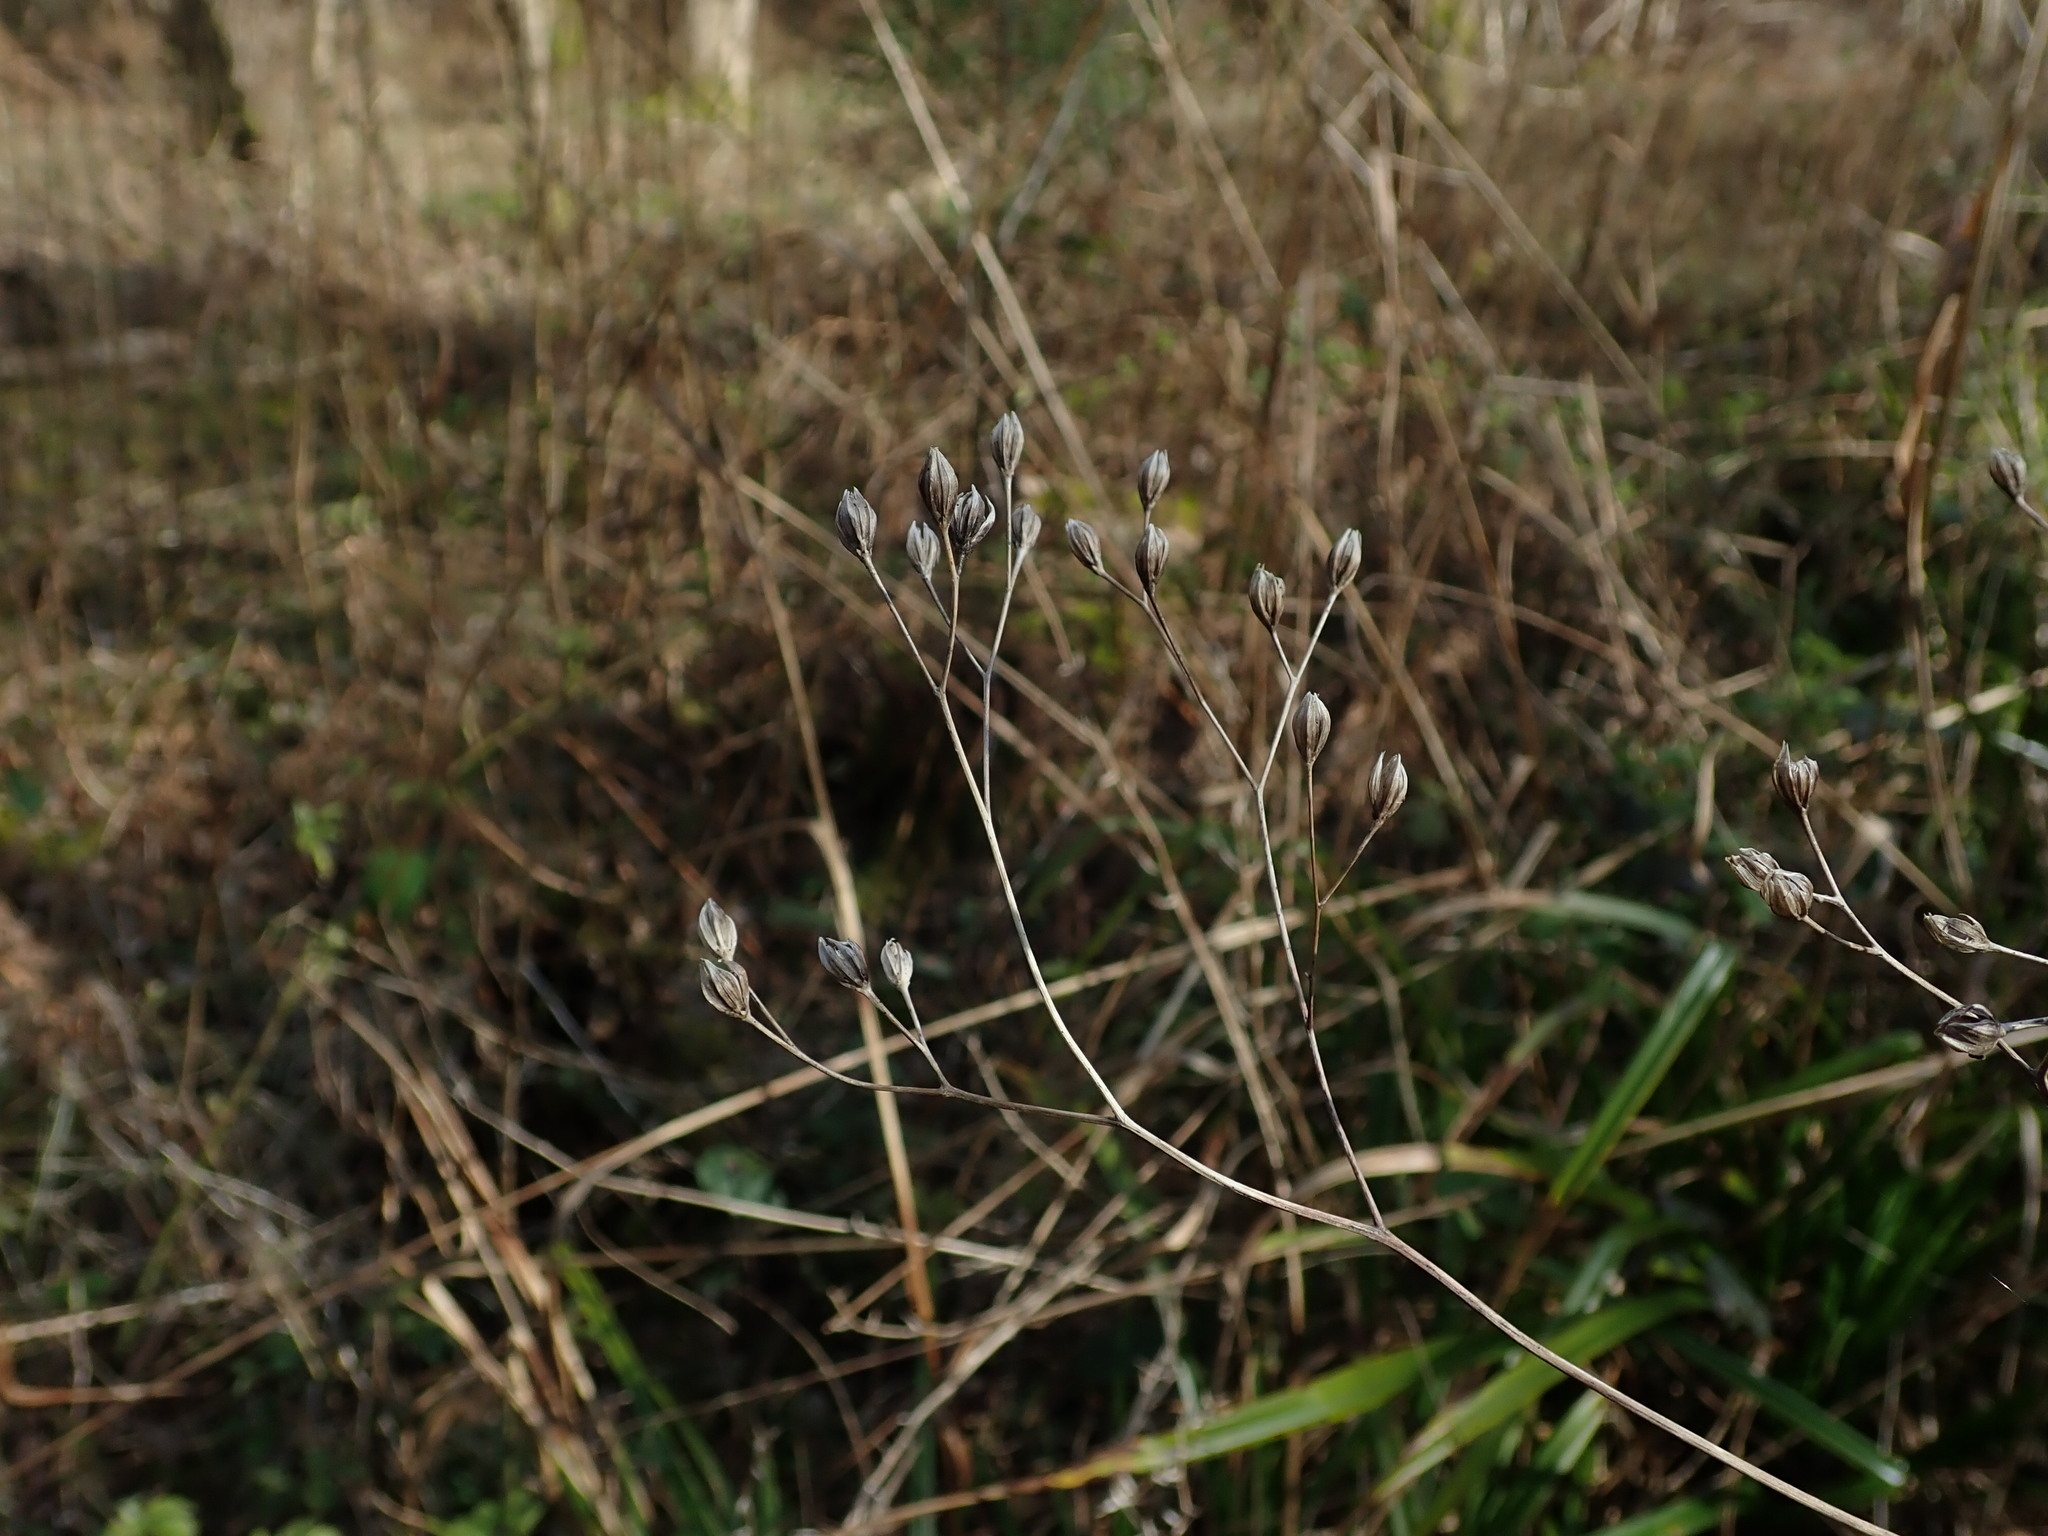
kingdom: Plantae
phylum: Tracheophyta
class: Magnoliopsida
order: Asterales
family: Asteraceae
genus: Lapsana
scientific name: Lapsana communis
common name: Nipplewort
